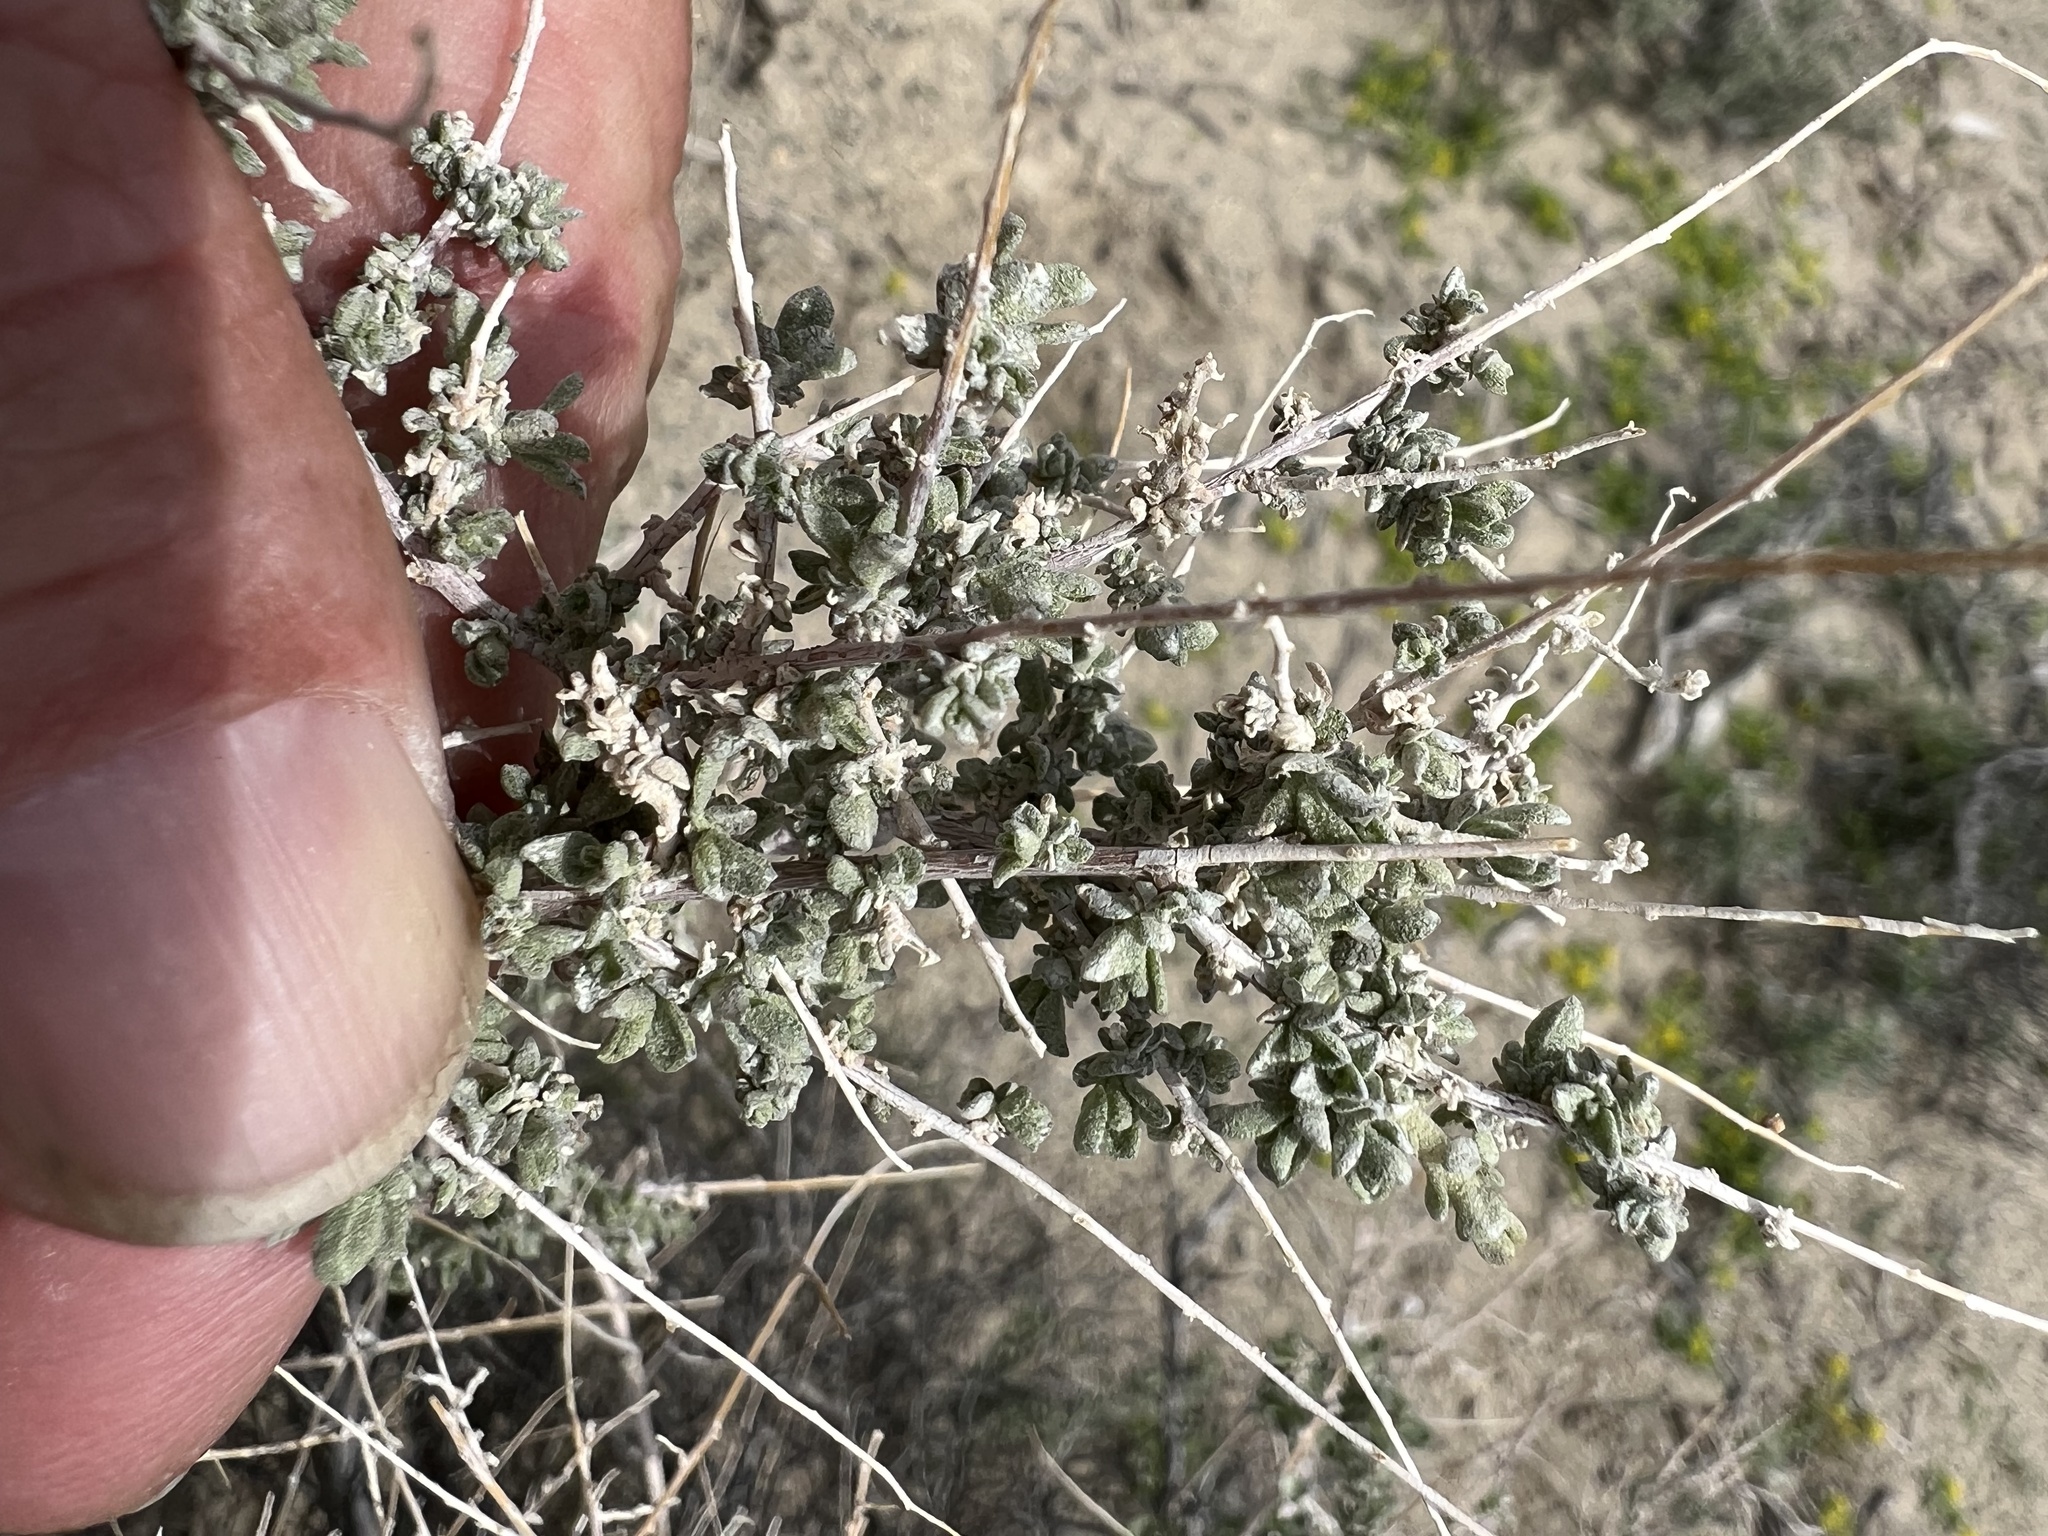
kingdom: Plantae
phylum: Tracheophyta
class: Magnoliopsida
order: Caryophyllales
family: Amaranthaceae
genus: Atriplex
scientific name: Atriplex polycarpa
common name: Desert saltbush
